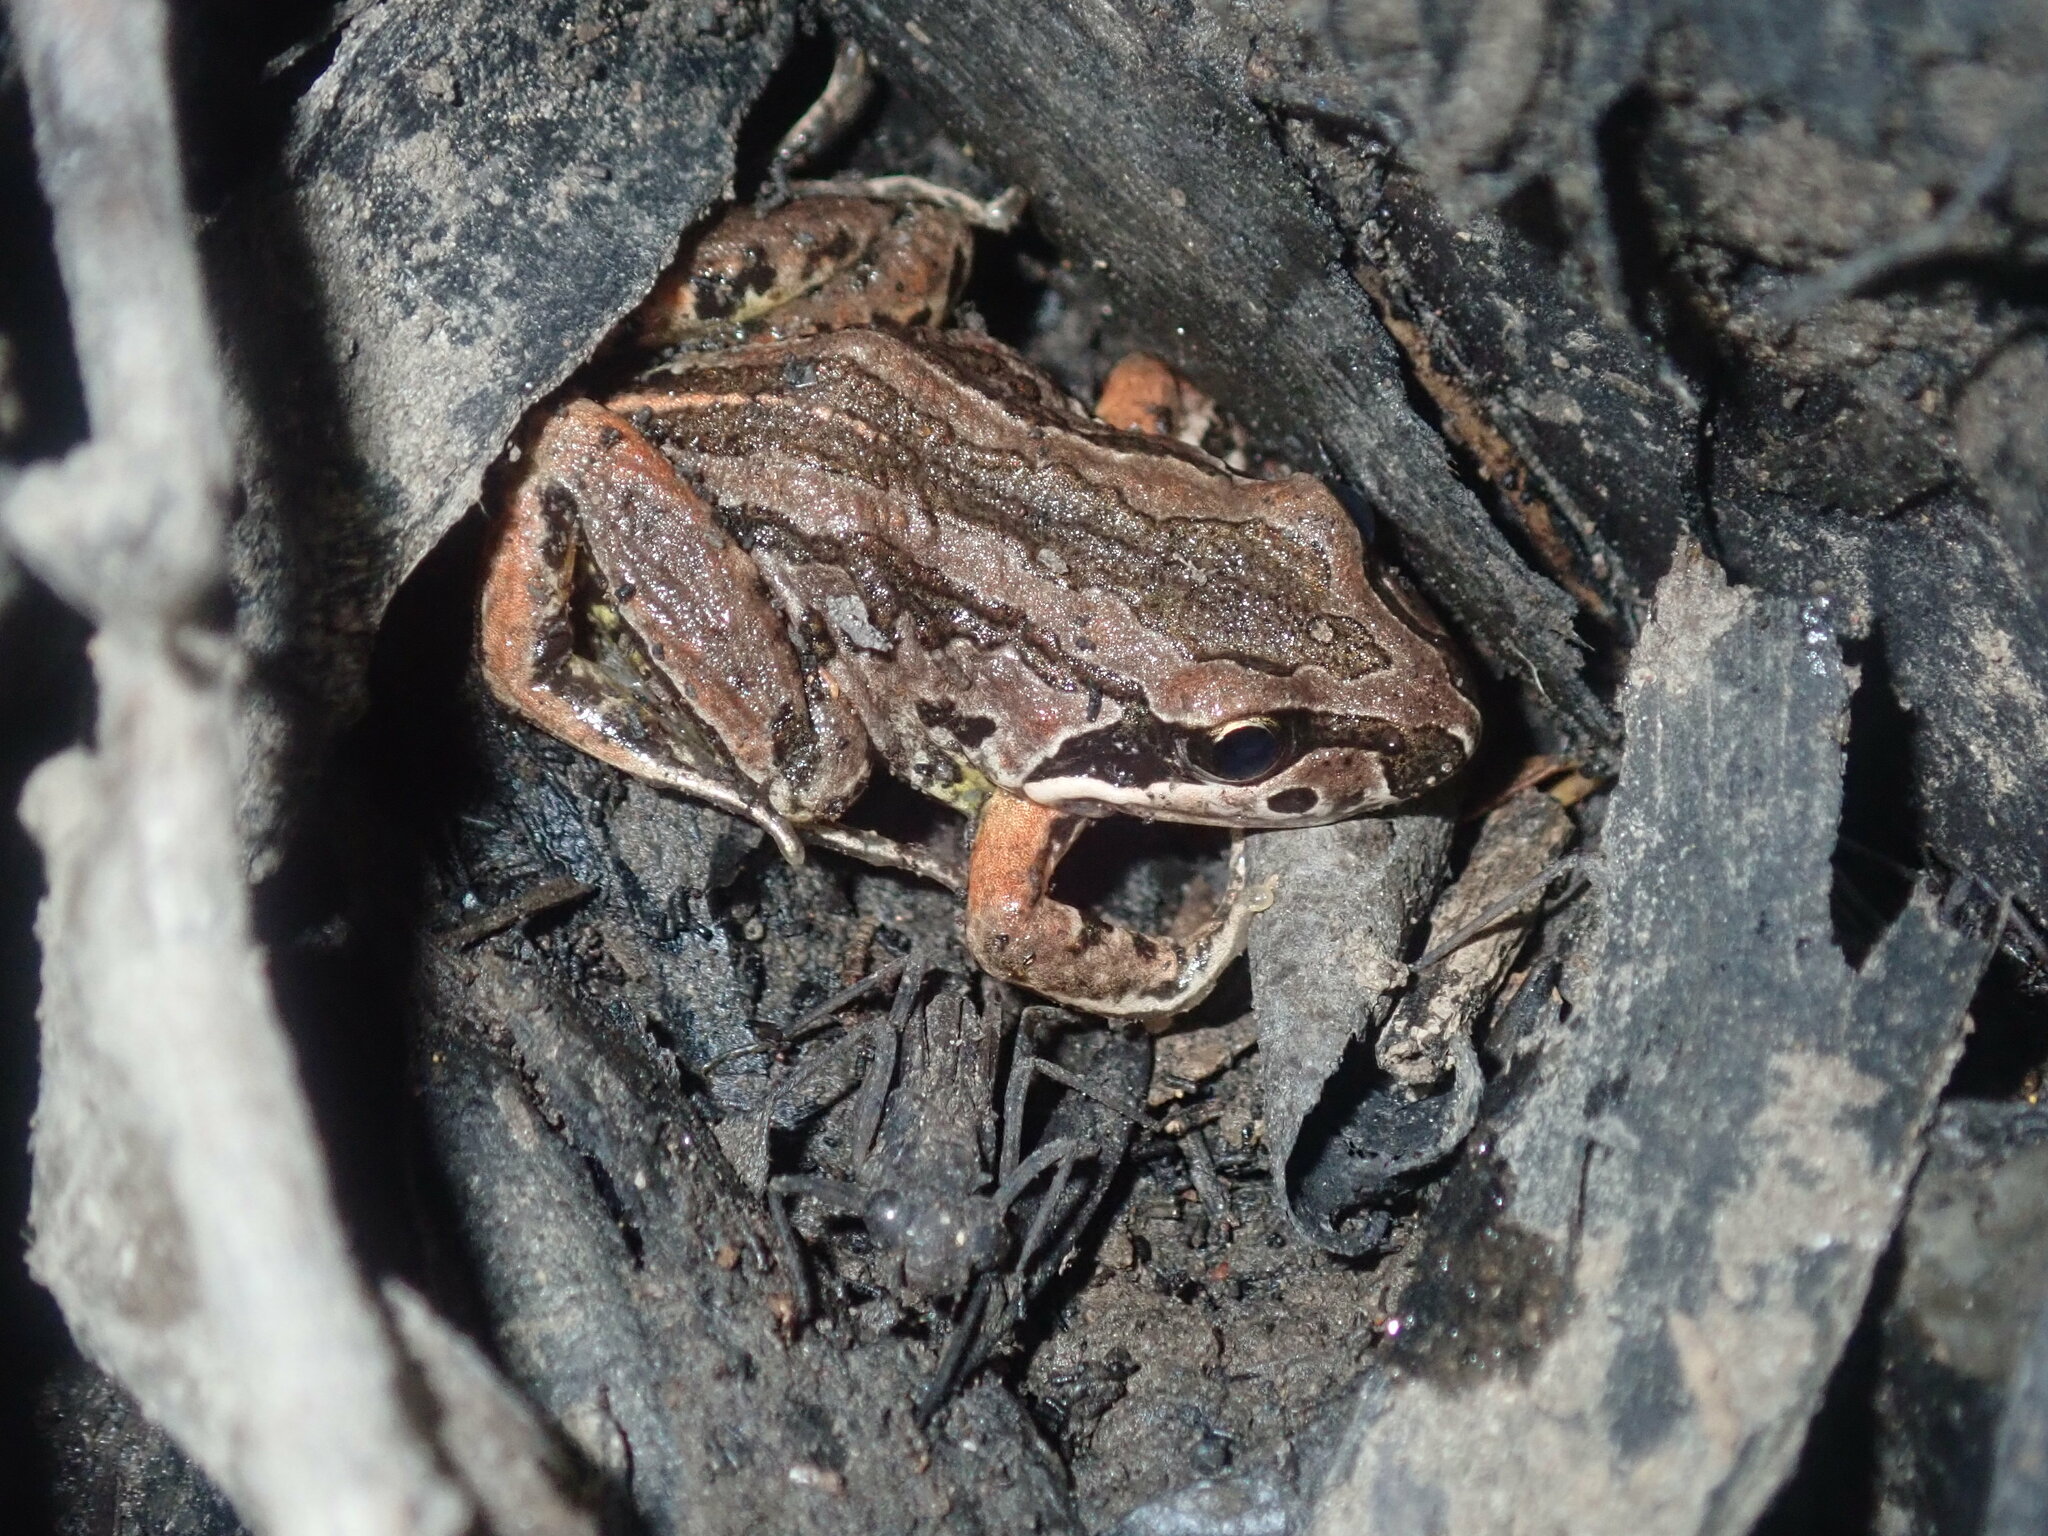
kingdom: Animalia
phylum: Chordata
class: Amphibia
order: Anura
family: Limnodynastidae
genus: Limnodynastes
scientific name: Limnodynastes peronii
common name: Brown frog
